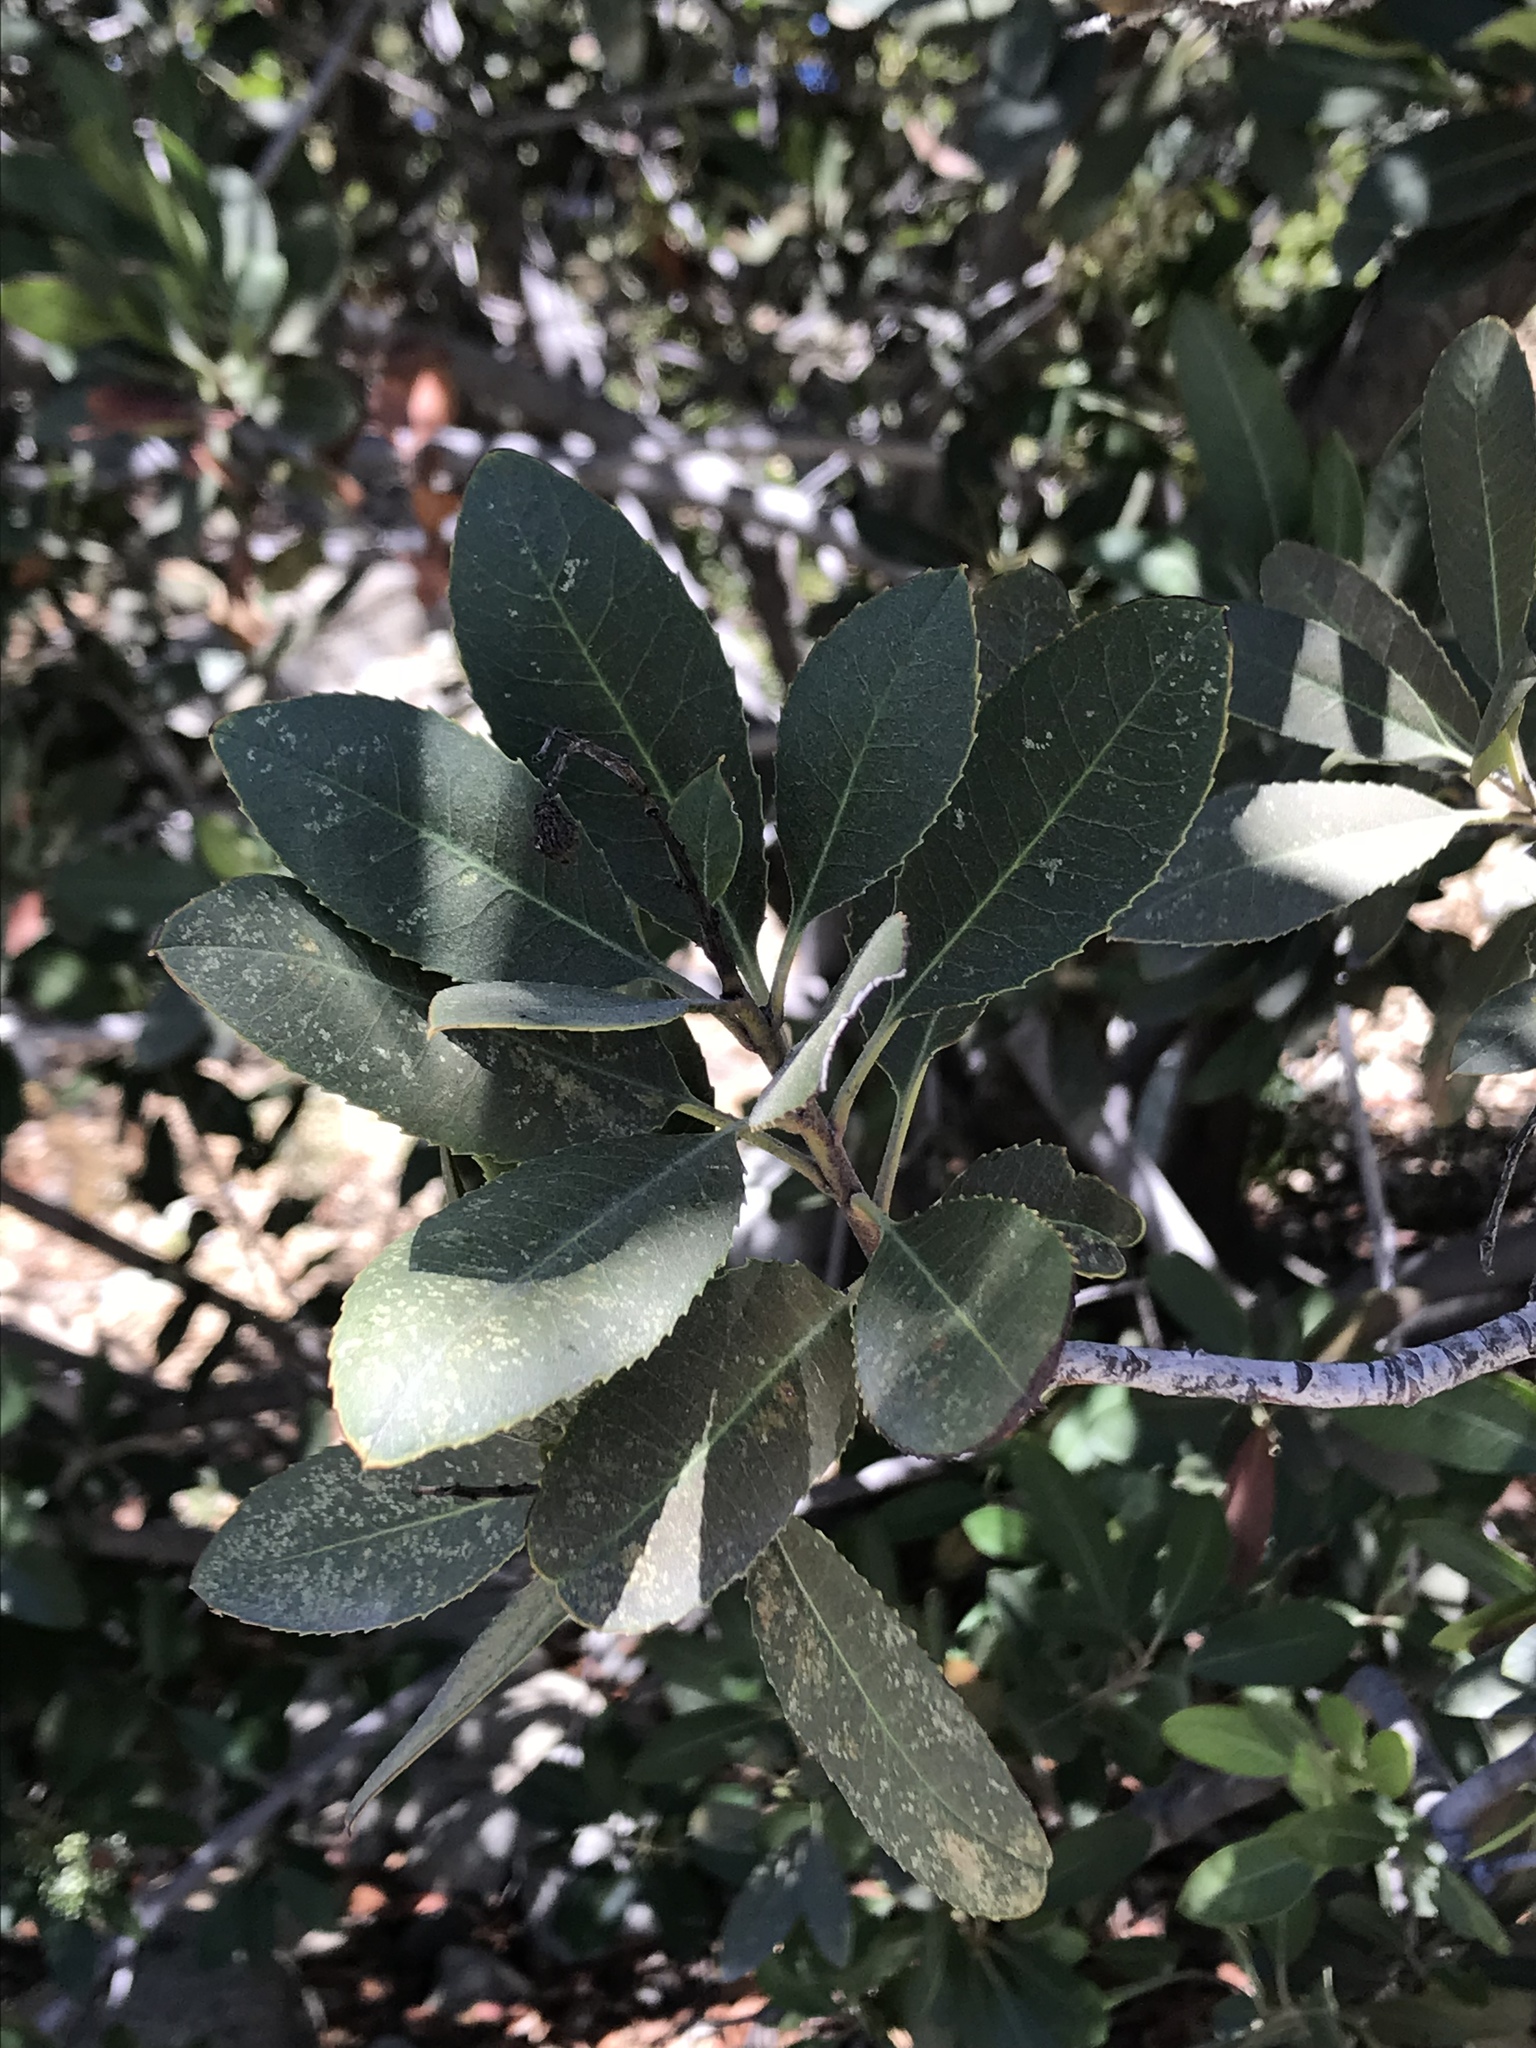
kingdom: Plantae
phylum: Tracheophyta
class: Magnoliopsida
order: Rosales
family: Rosaceae
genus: Heteromeles
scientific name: Heteromeles arbutifolia
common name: California-holly
